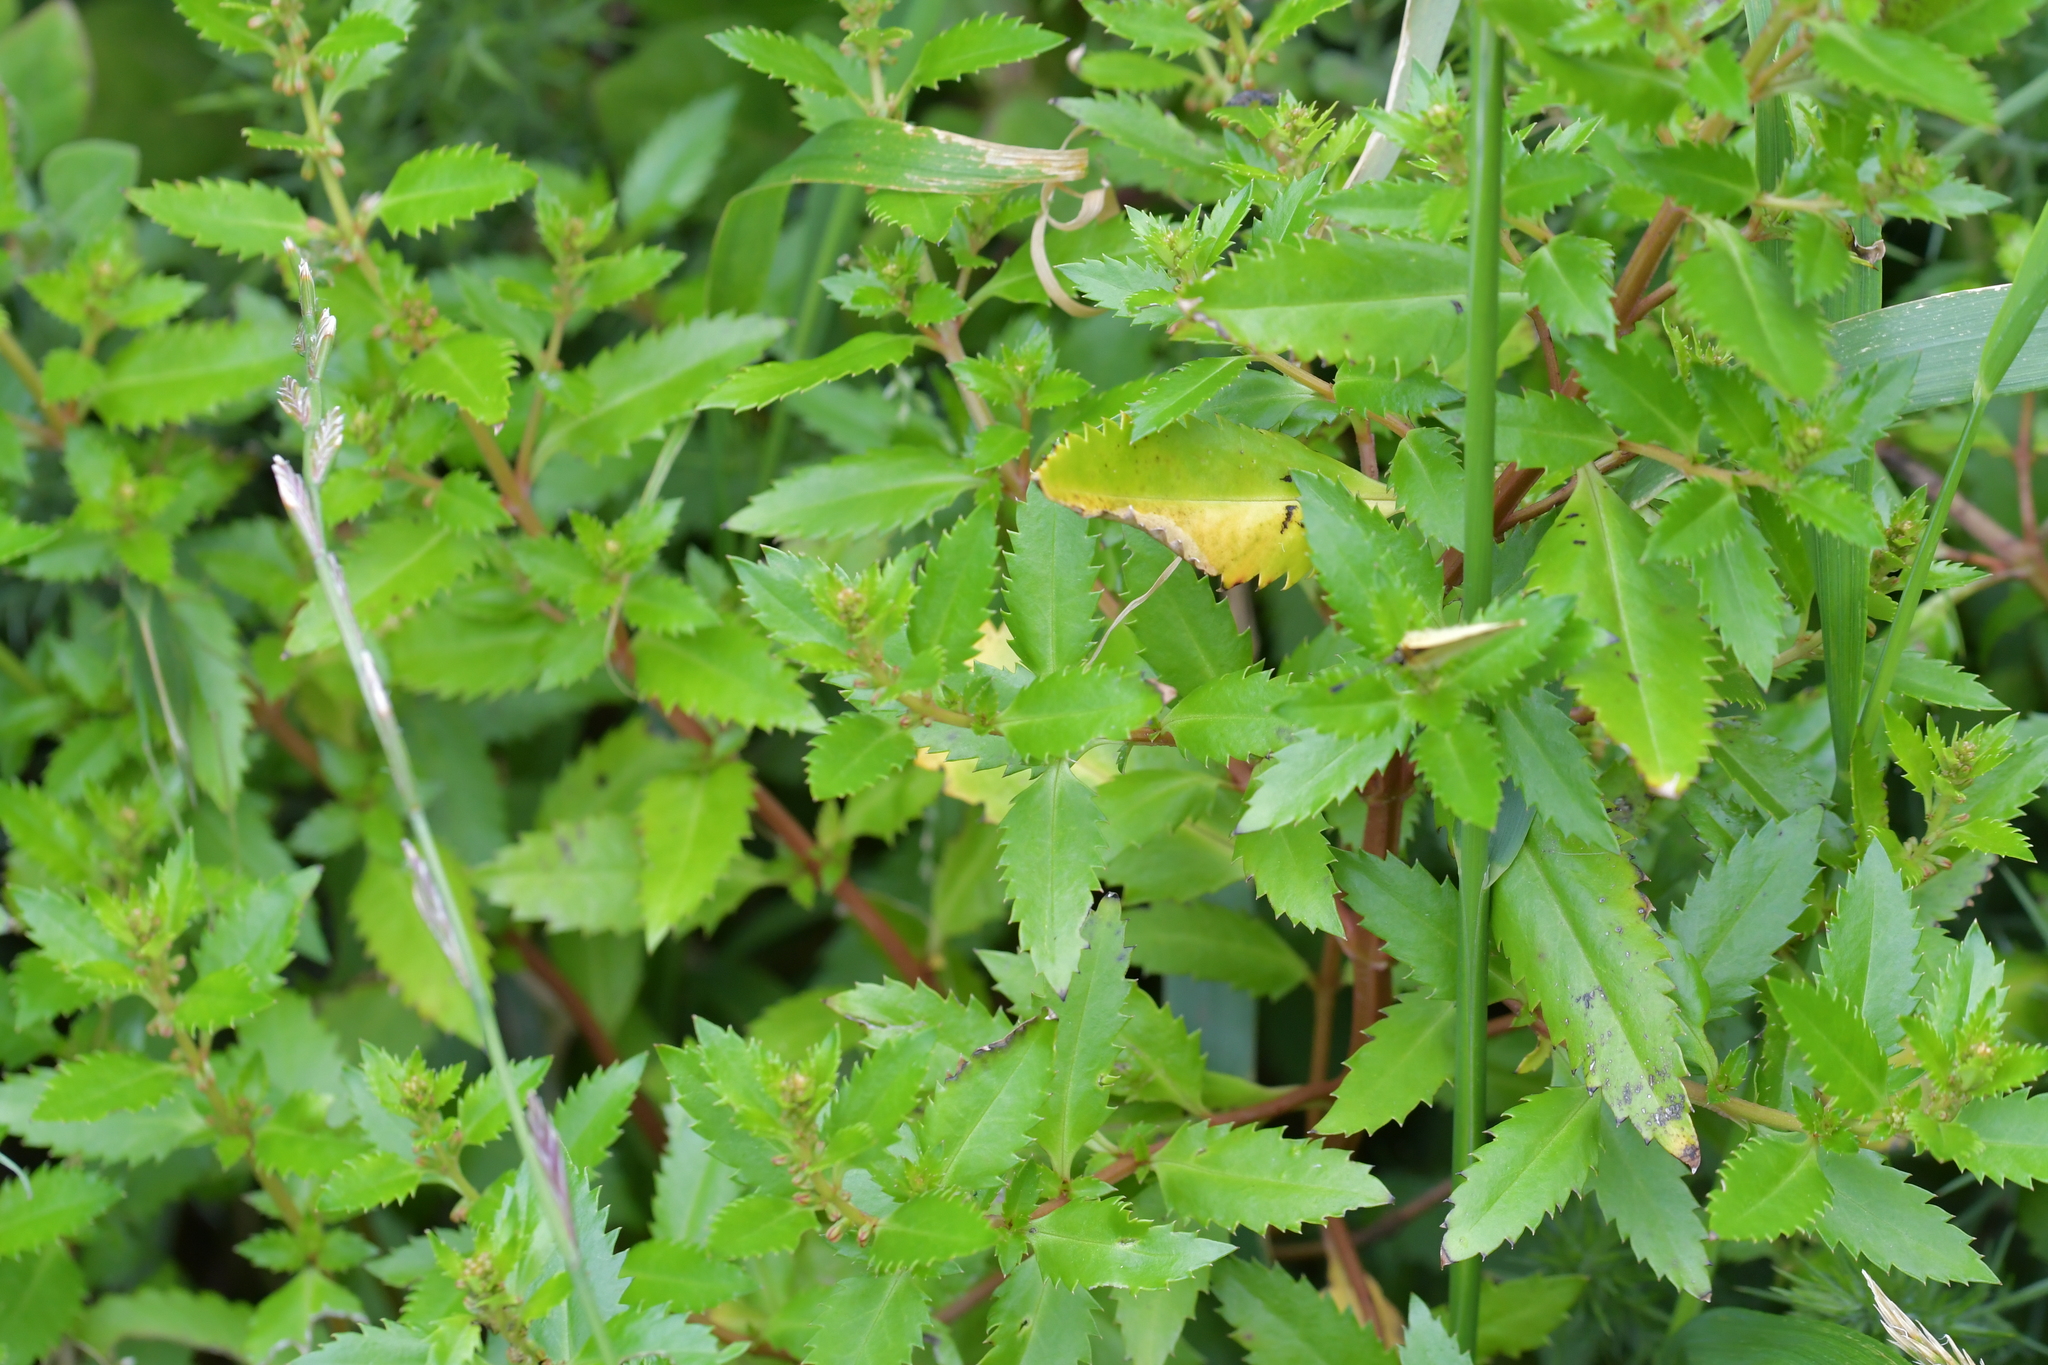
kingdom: Plantae
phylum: Tracheophyta
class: Magnoliopsida
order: Saxifragales
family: Haloragaceae
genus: Haloragis
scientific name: Haloragis erecta
